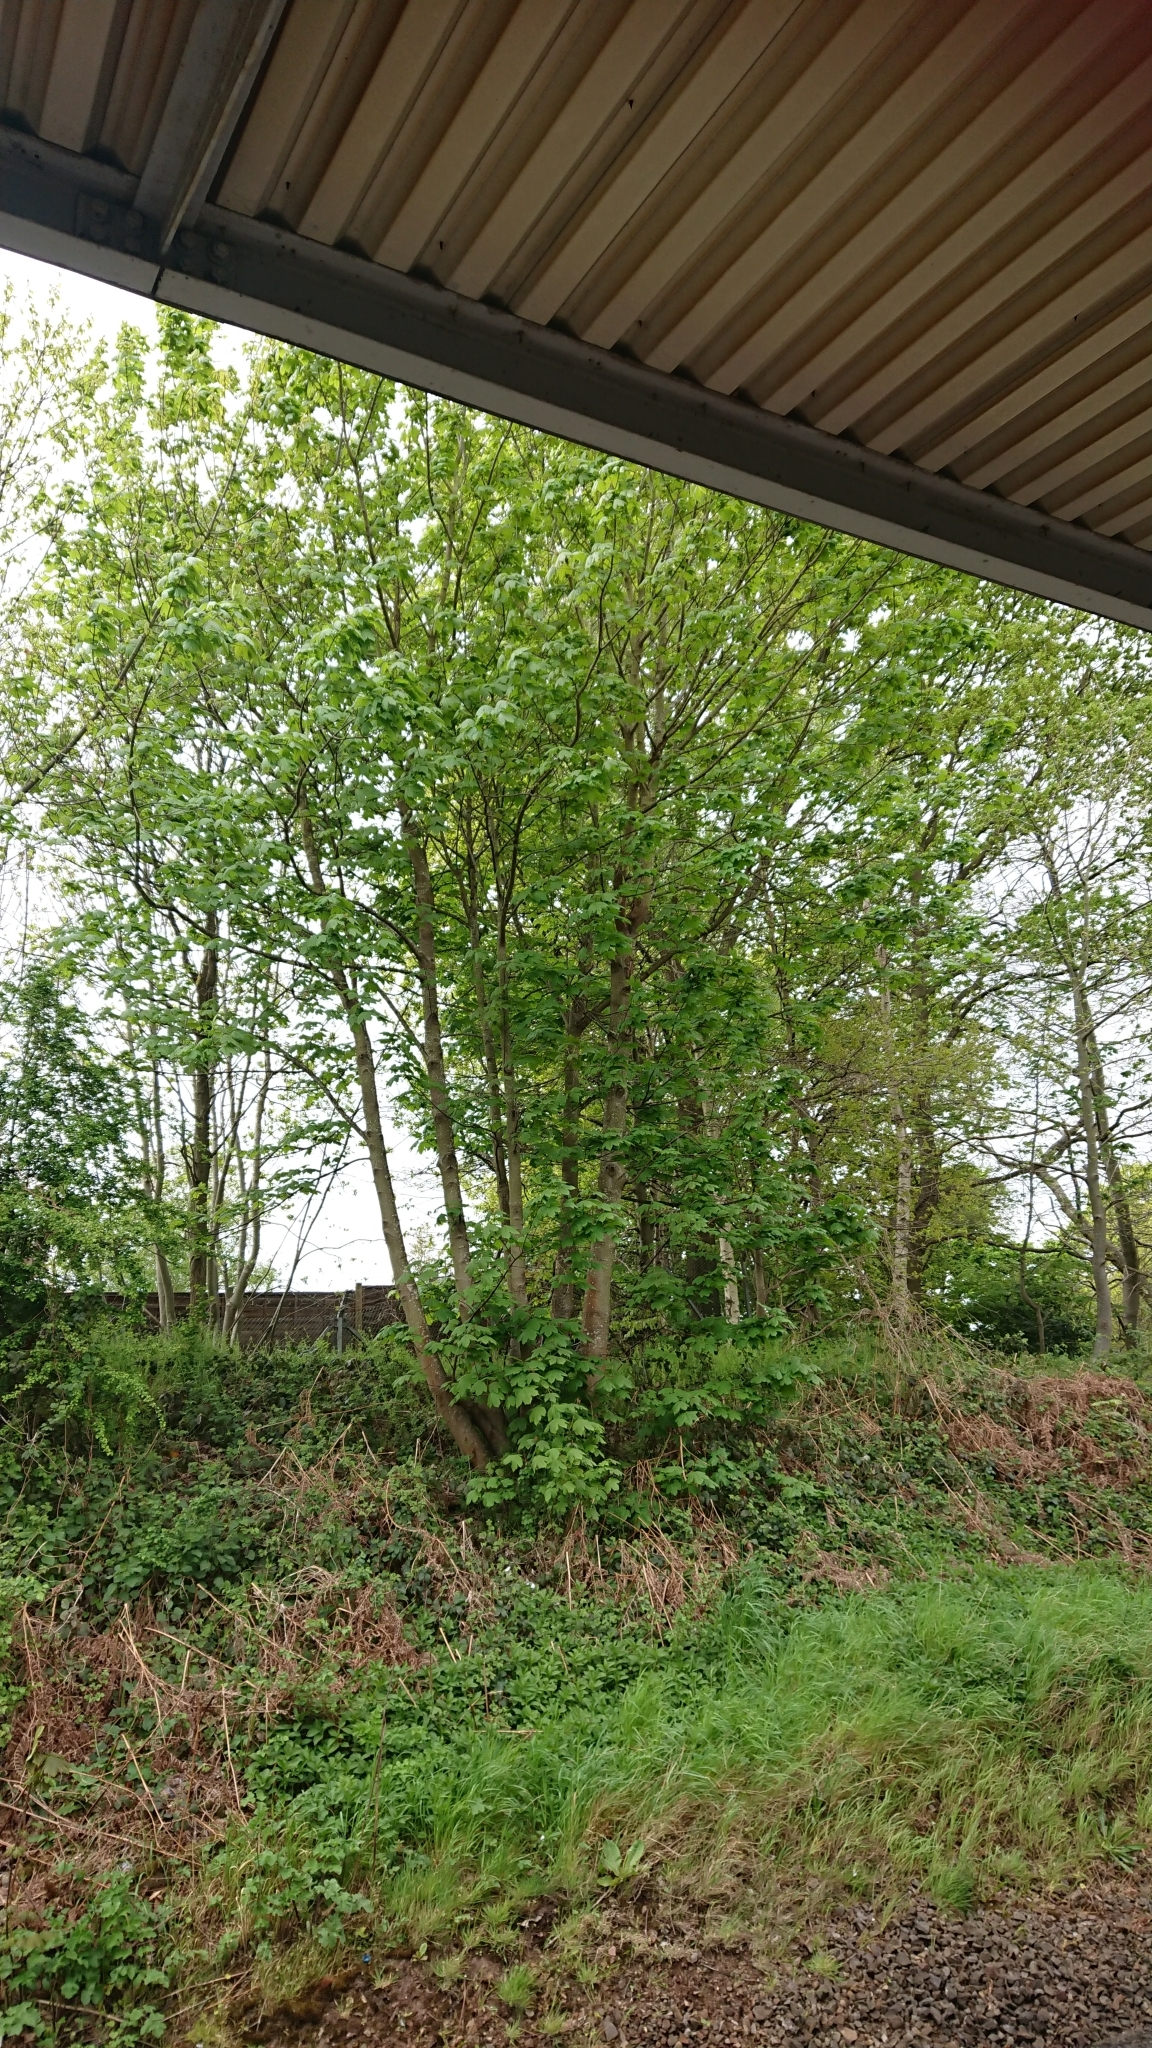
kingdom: Plantae
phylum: Tracheophyta
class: Magnoliopsida
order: Sapindales
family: Sapindaceae
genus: Acer
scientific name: Acer pseudoplatanus
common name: Sycamore
